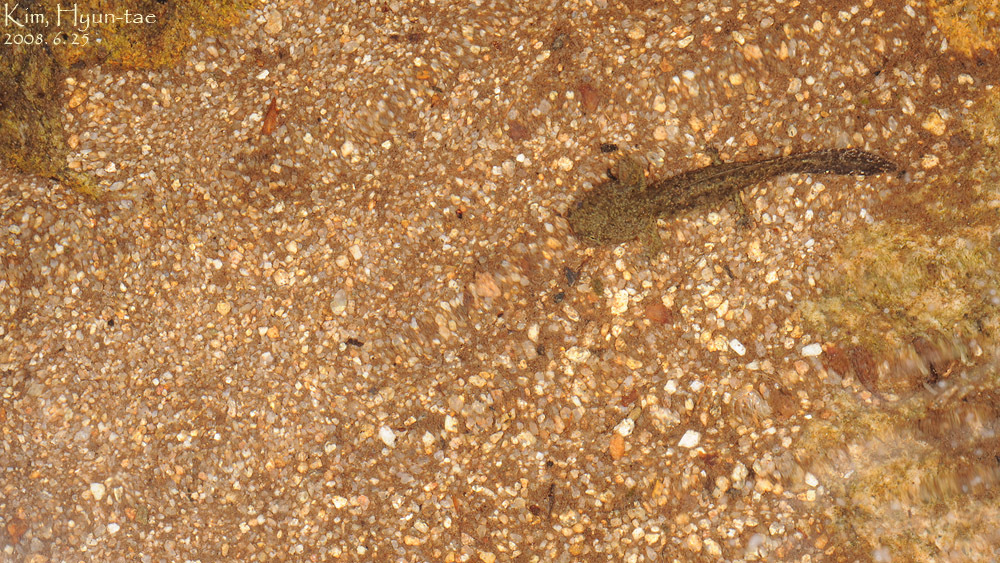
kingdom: Animalia
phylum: Chordata
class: Amphibia
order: Caudata
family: Hynobiidae
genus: Hynobius
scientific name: Hynobius leechii
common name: Gensan salamander
